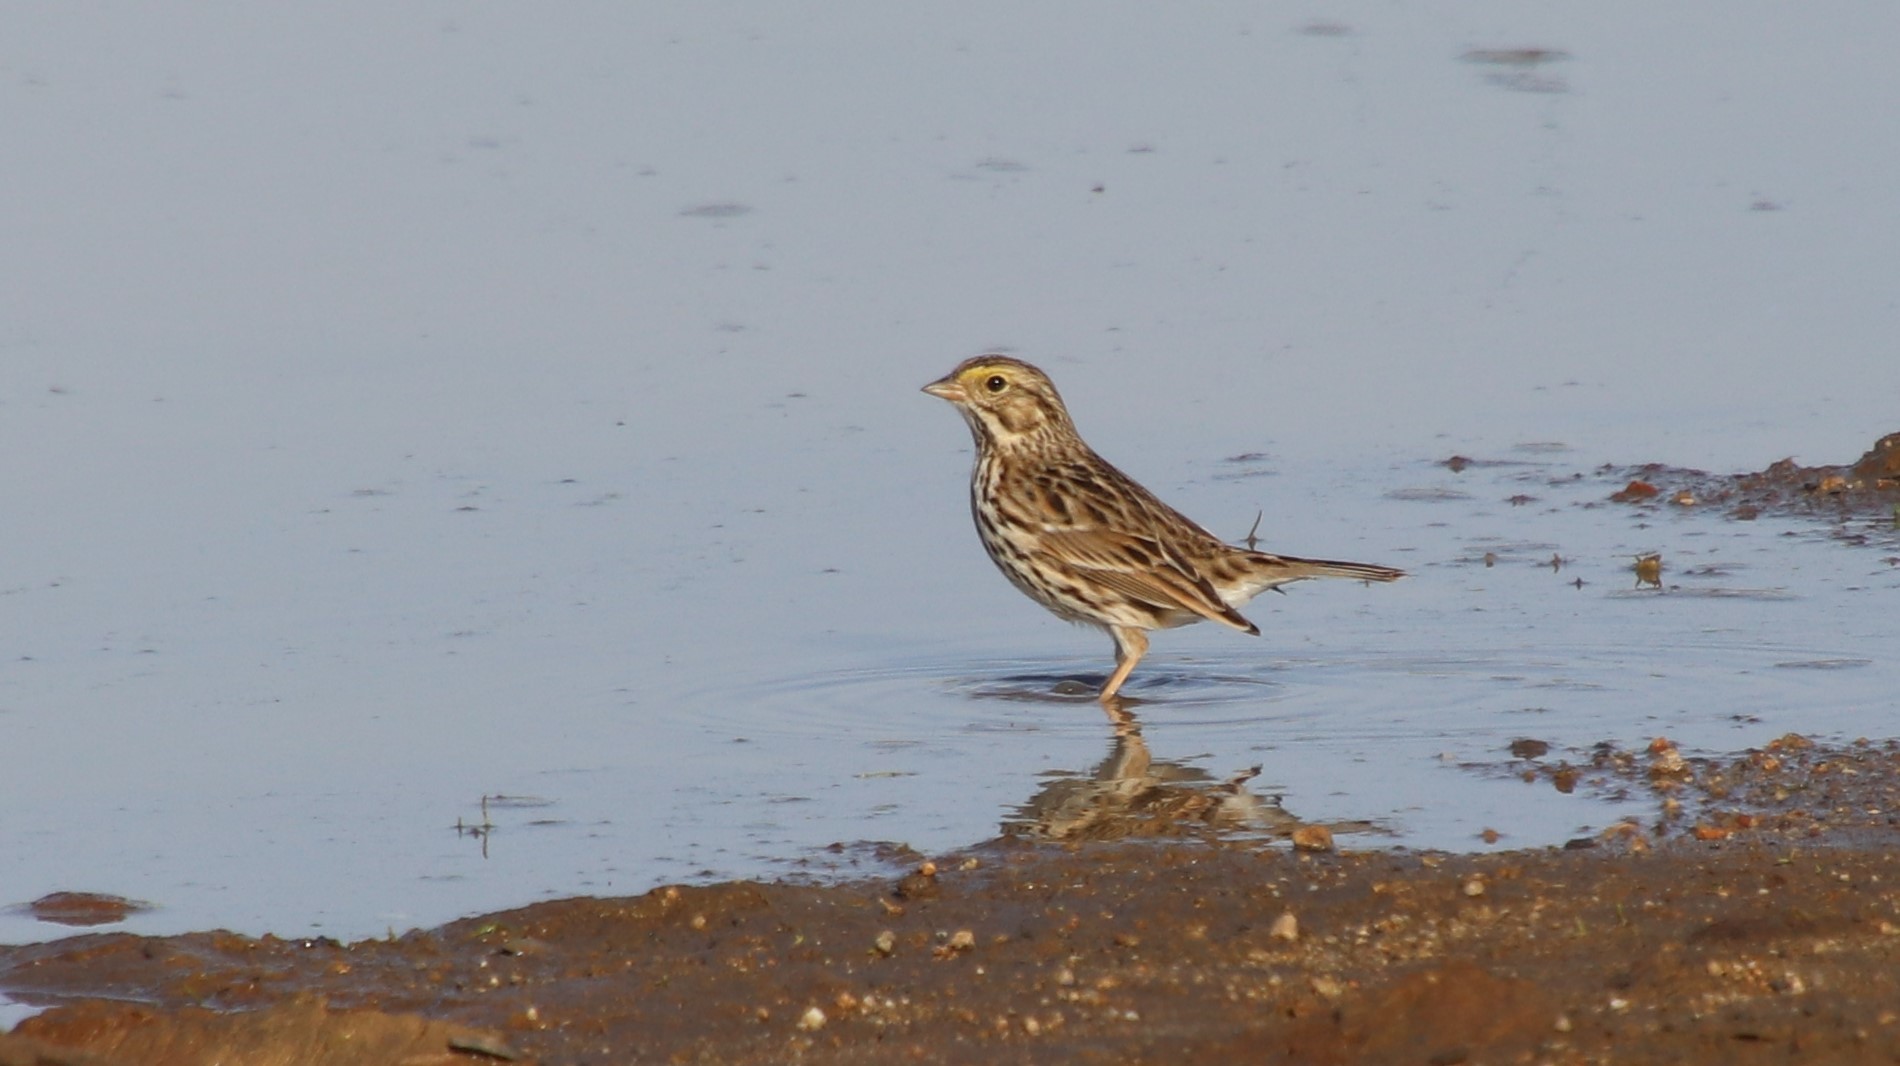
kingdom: Animalia
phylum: Chordata
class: Aves
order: Passeriformes
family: Passerellidae
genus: Passerculus
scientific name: Passerculus sandwichensis
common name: Savannah sparrow
